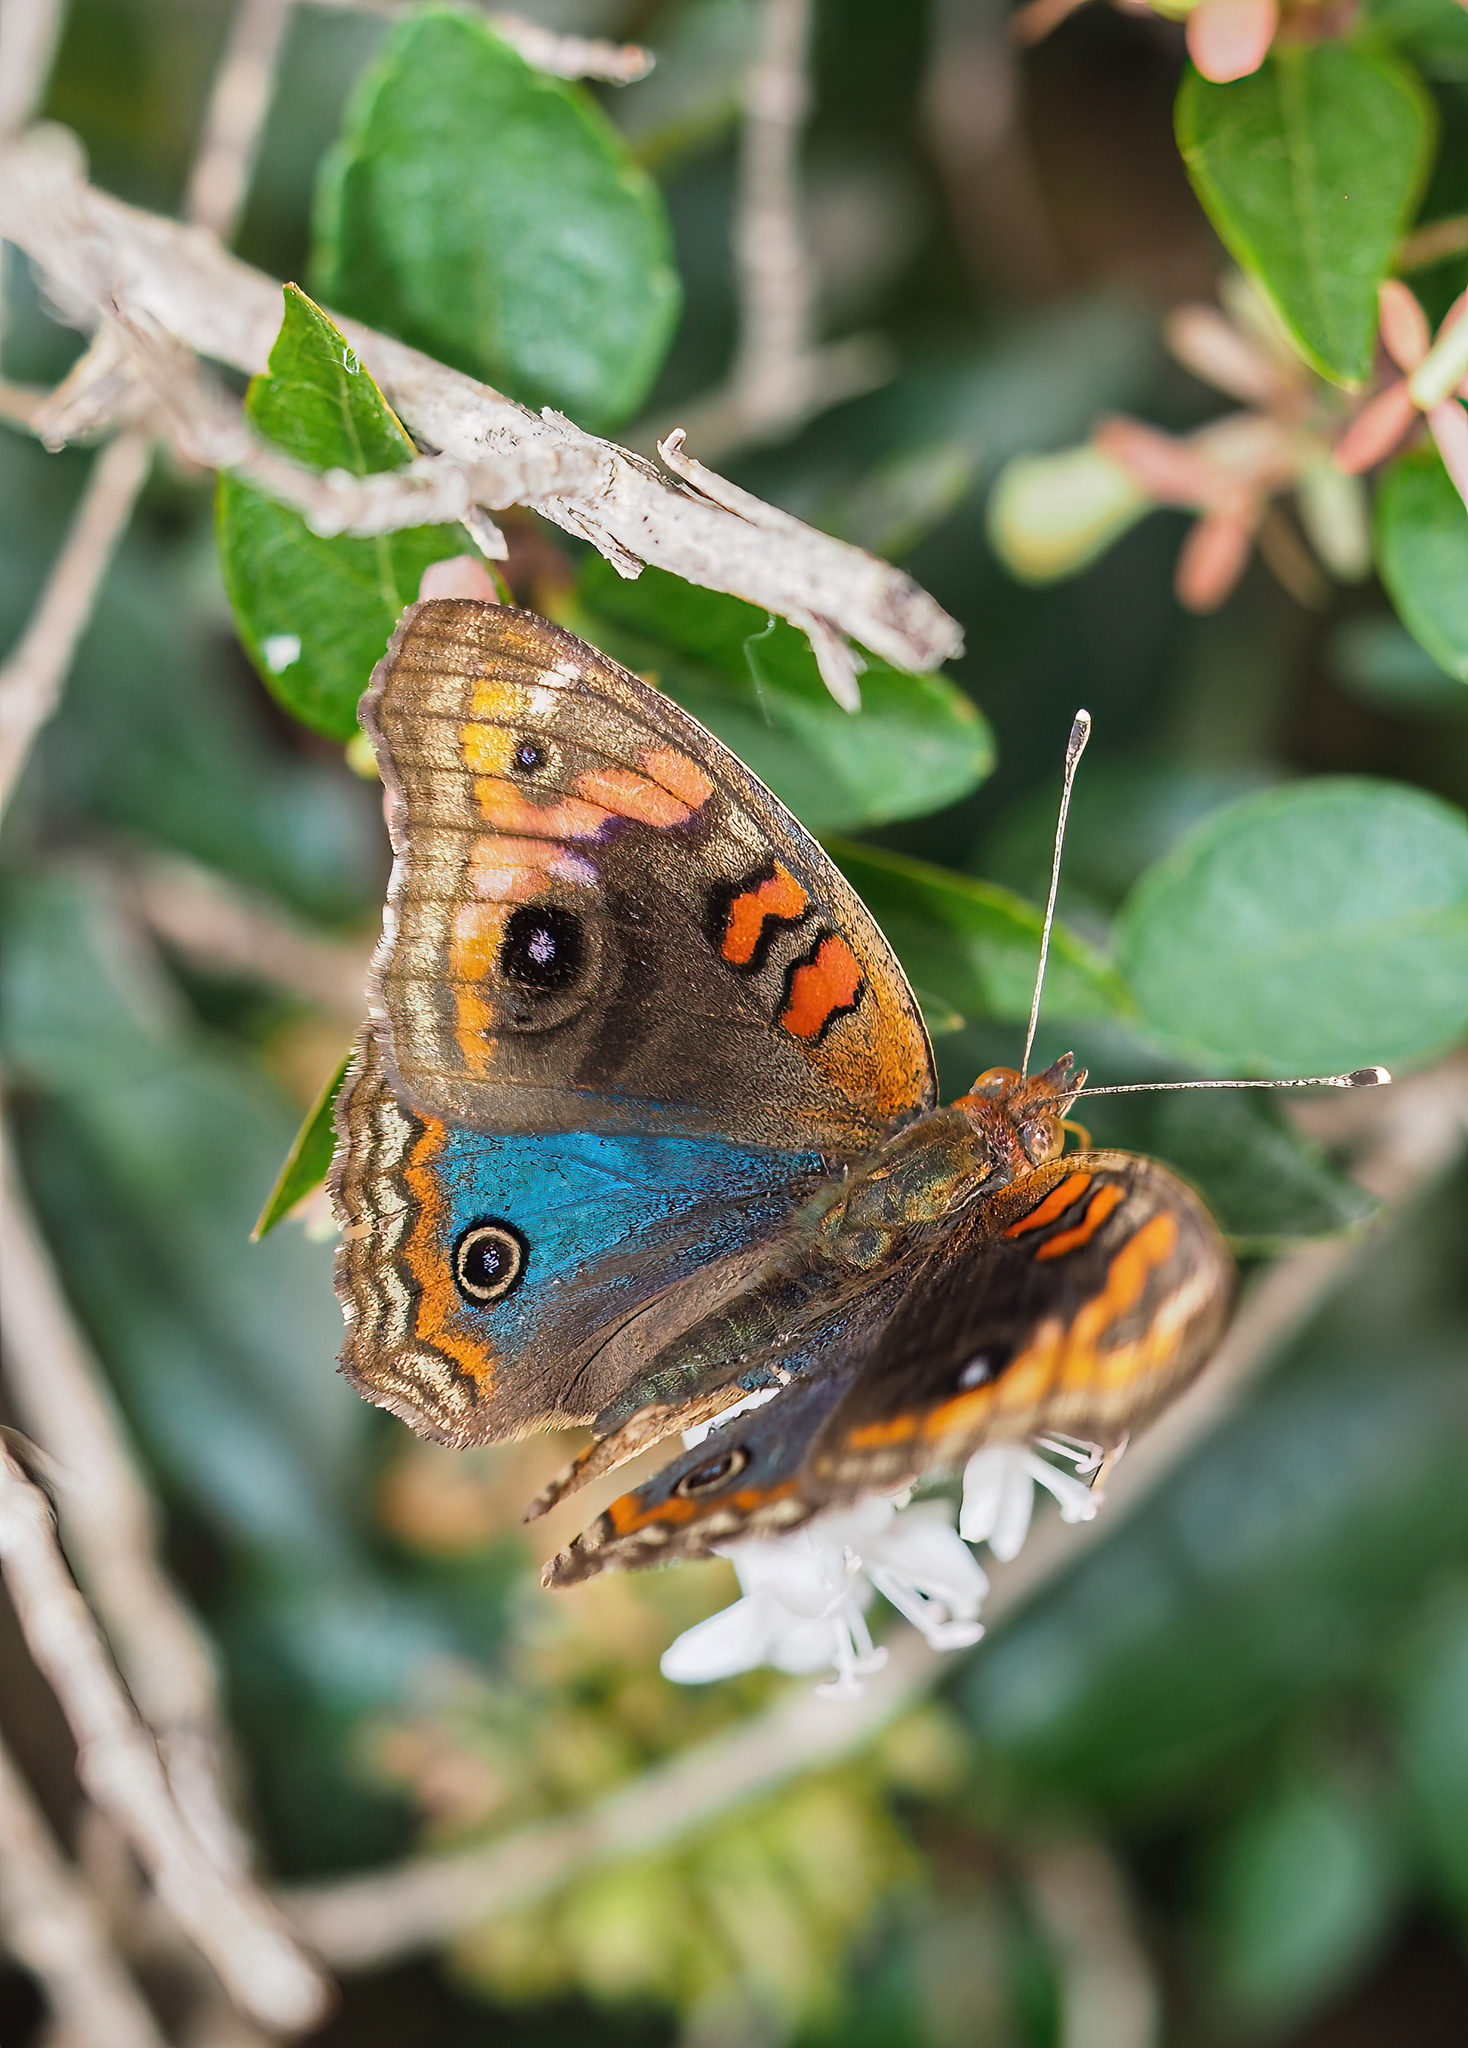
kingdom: Animalia
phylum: Arthropoda
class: Insecta
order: Lepidoptera
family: Nymphalidae
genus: Junonia
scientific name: Junonia lavinia
